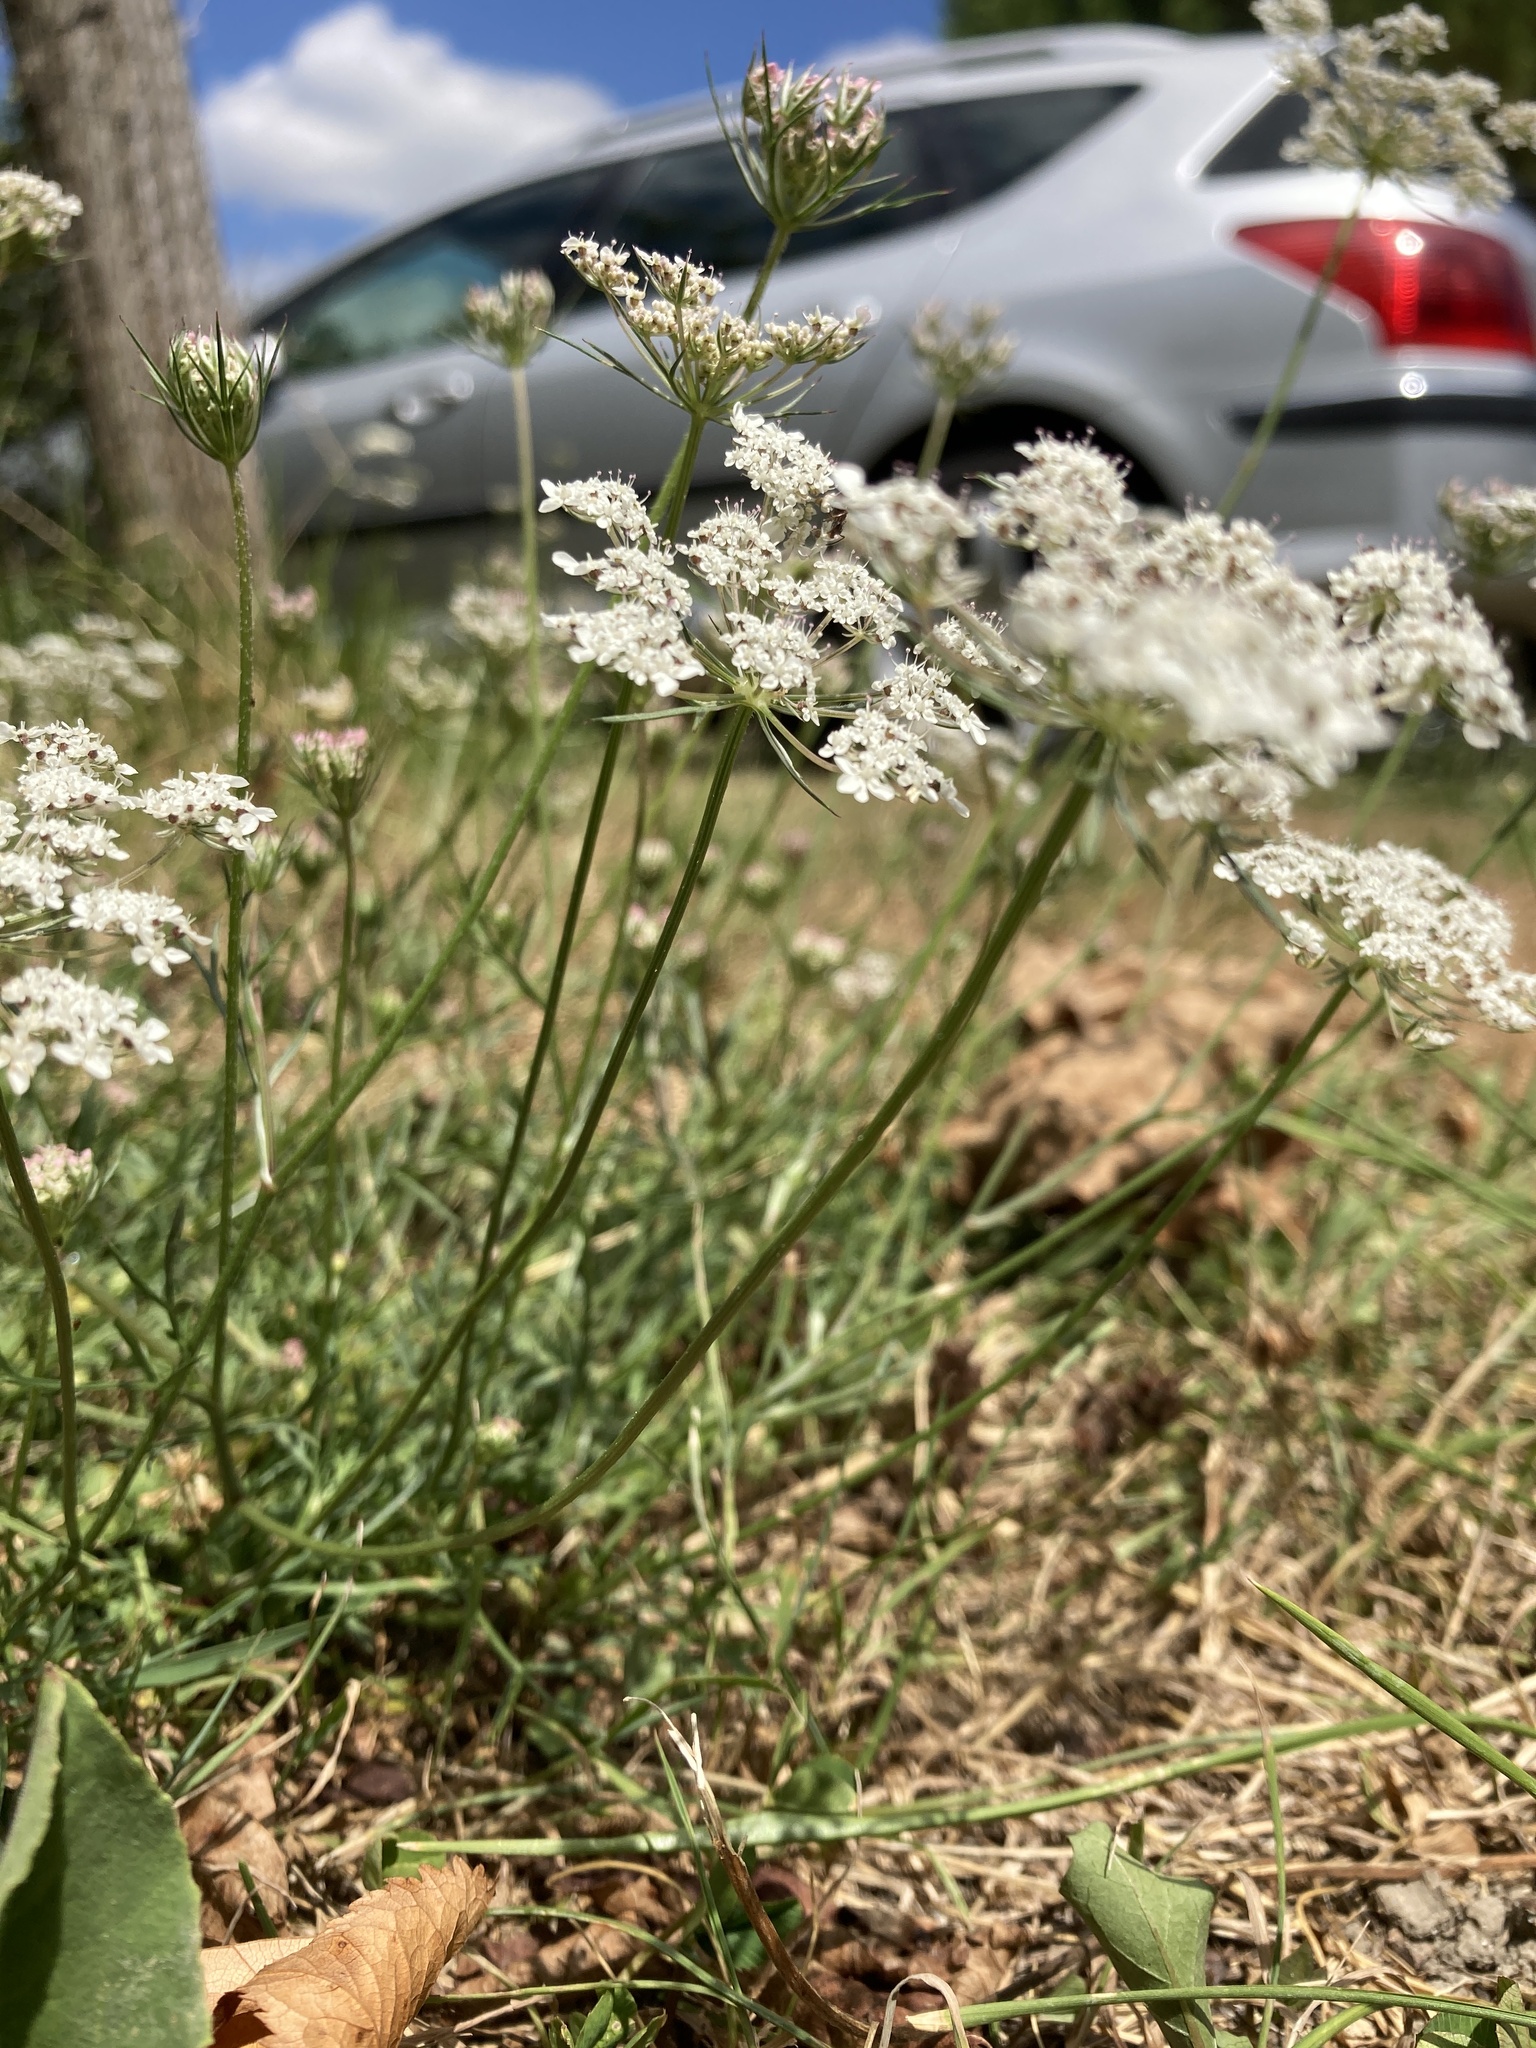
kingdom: Plantae
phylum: Tracheophyta
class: Magnoliopsida
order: Apiales
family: Apiaceae
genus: Daucus
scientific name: Daucus carota
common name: Wild carrot
